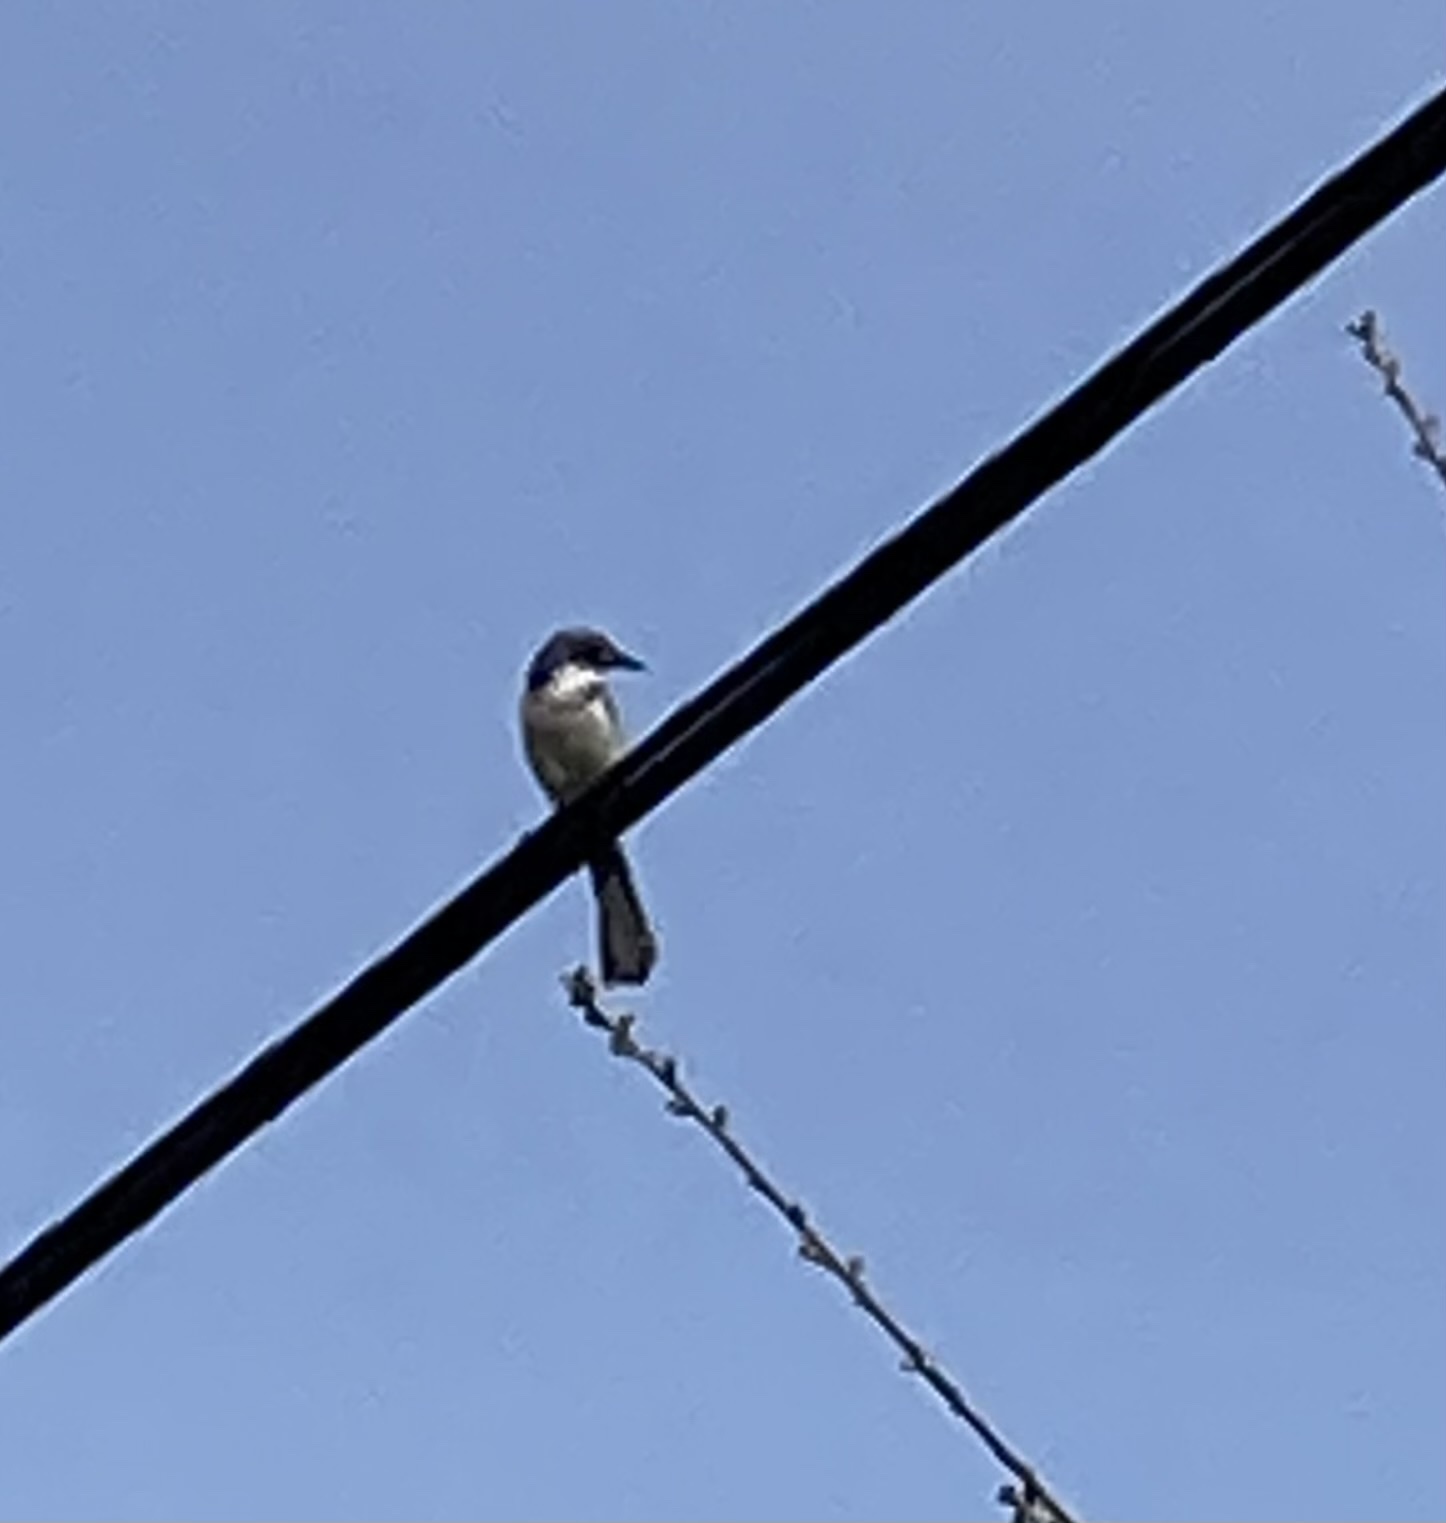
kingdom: Animalia
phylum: Chordata
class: Aves
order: Passeriformes
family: Corvidae
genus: Aphelocoma
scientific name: Aphelocoma californica
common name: California scrub-jay
